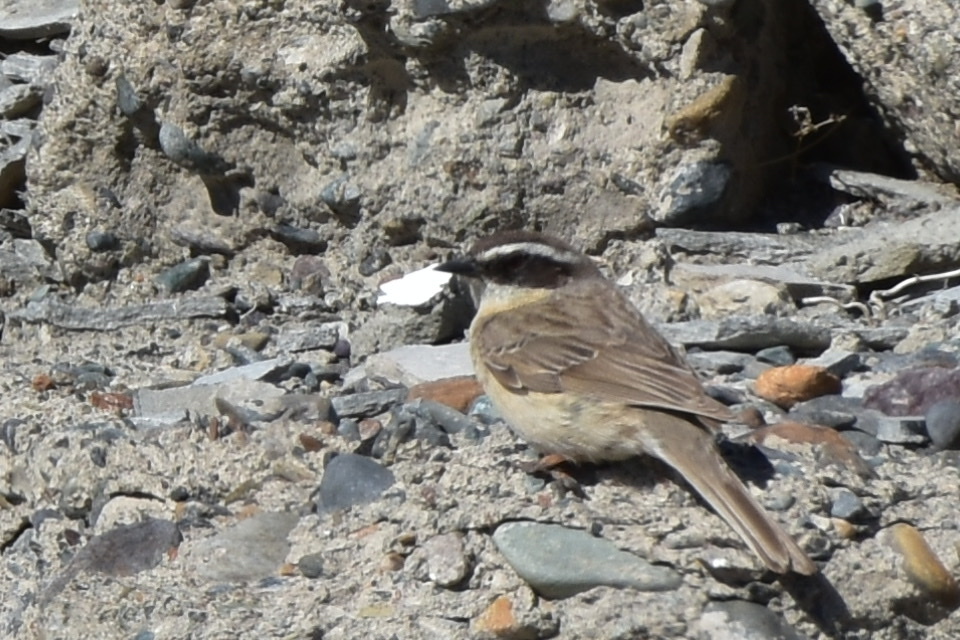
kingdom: Animalia
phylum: Chordata
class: Aves
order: Passeriformes
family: Prunellidae
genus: Prunella
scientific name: Prunella fulvescens
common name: Brown accentor
